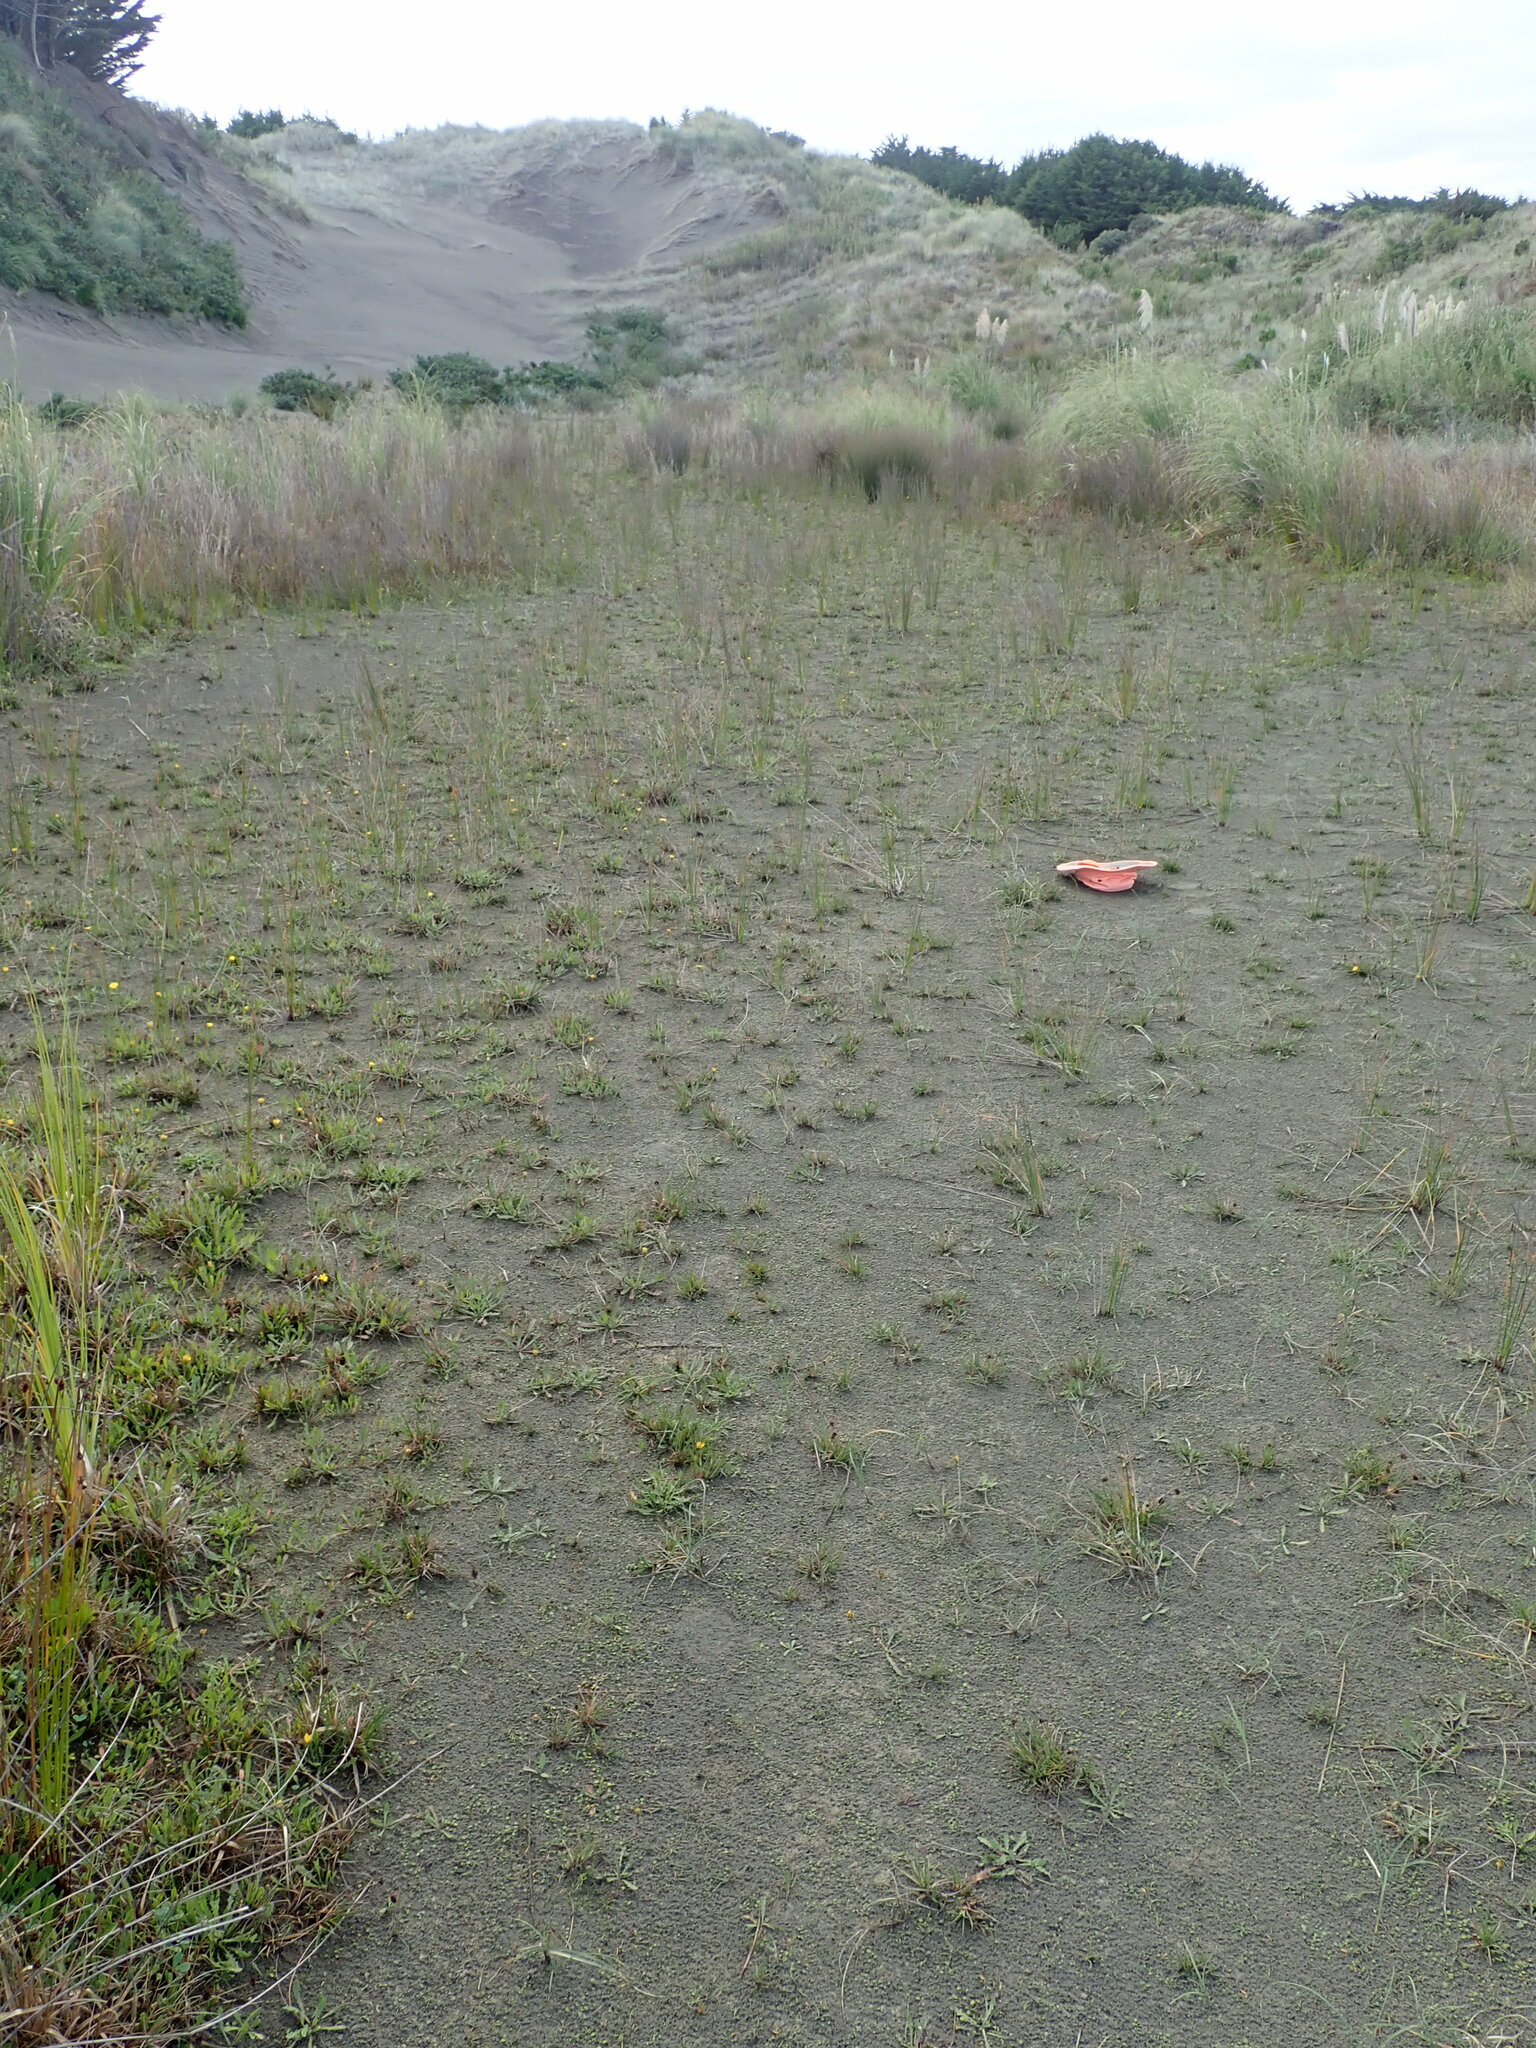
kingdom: Plantae
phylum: Tracheophyta
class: Magnoliopsida
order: Asterales
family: Campanulaceae
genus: Lobelia
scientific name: Lobelia anceps
